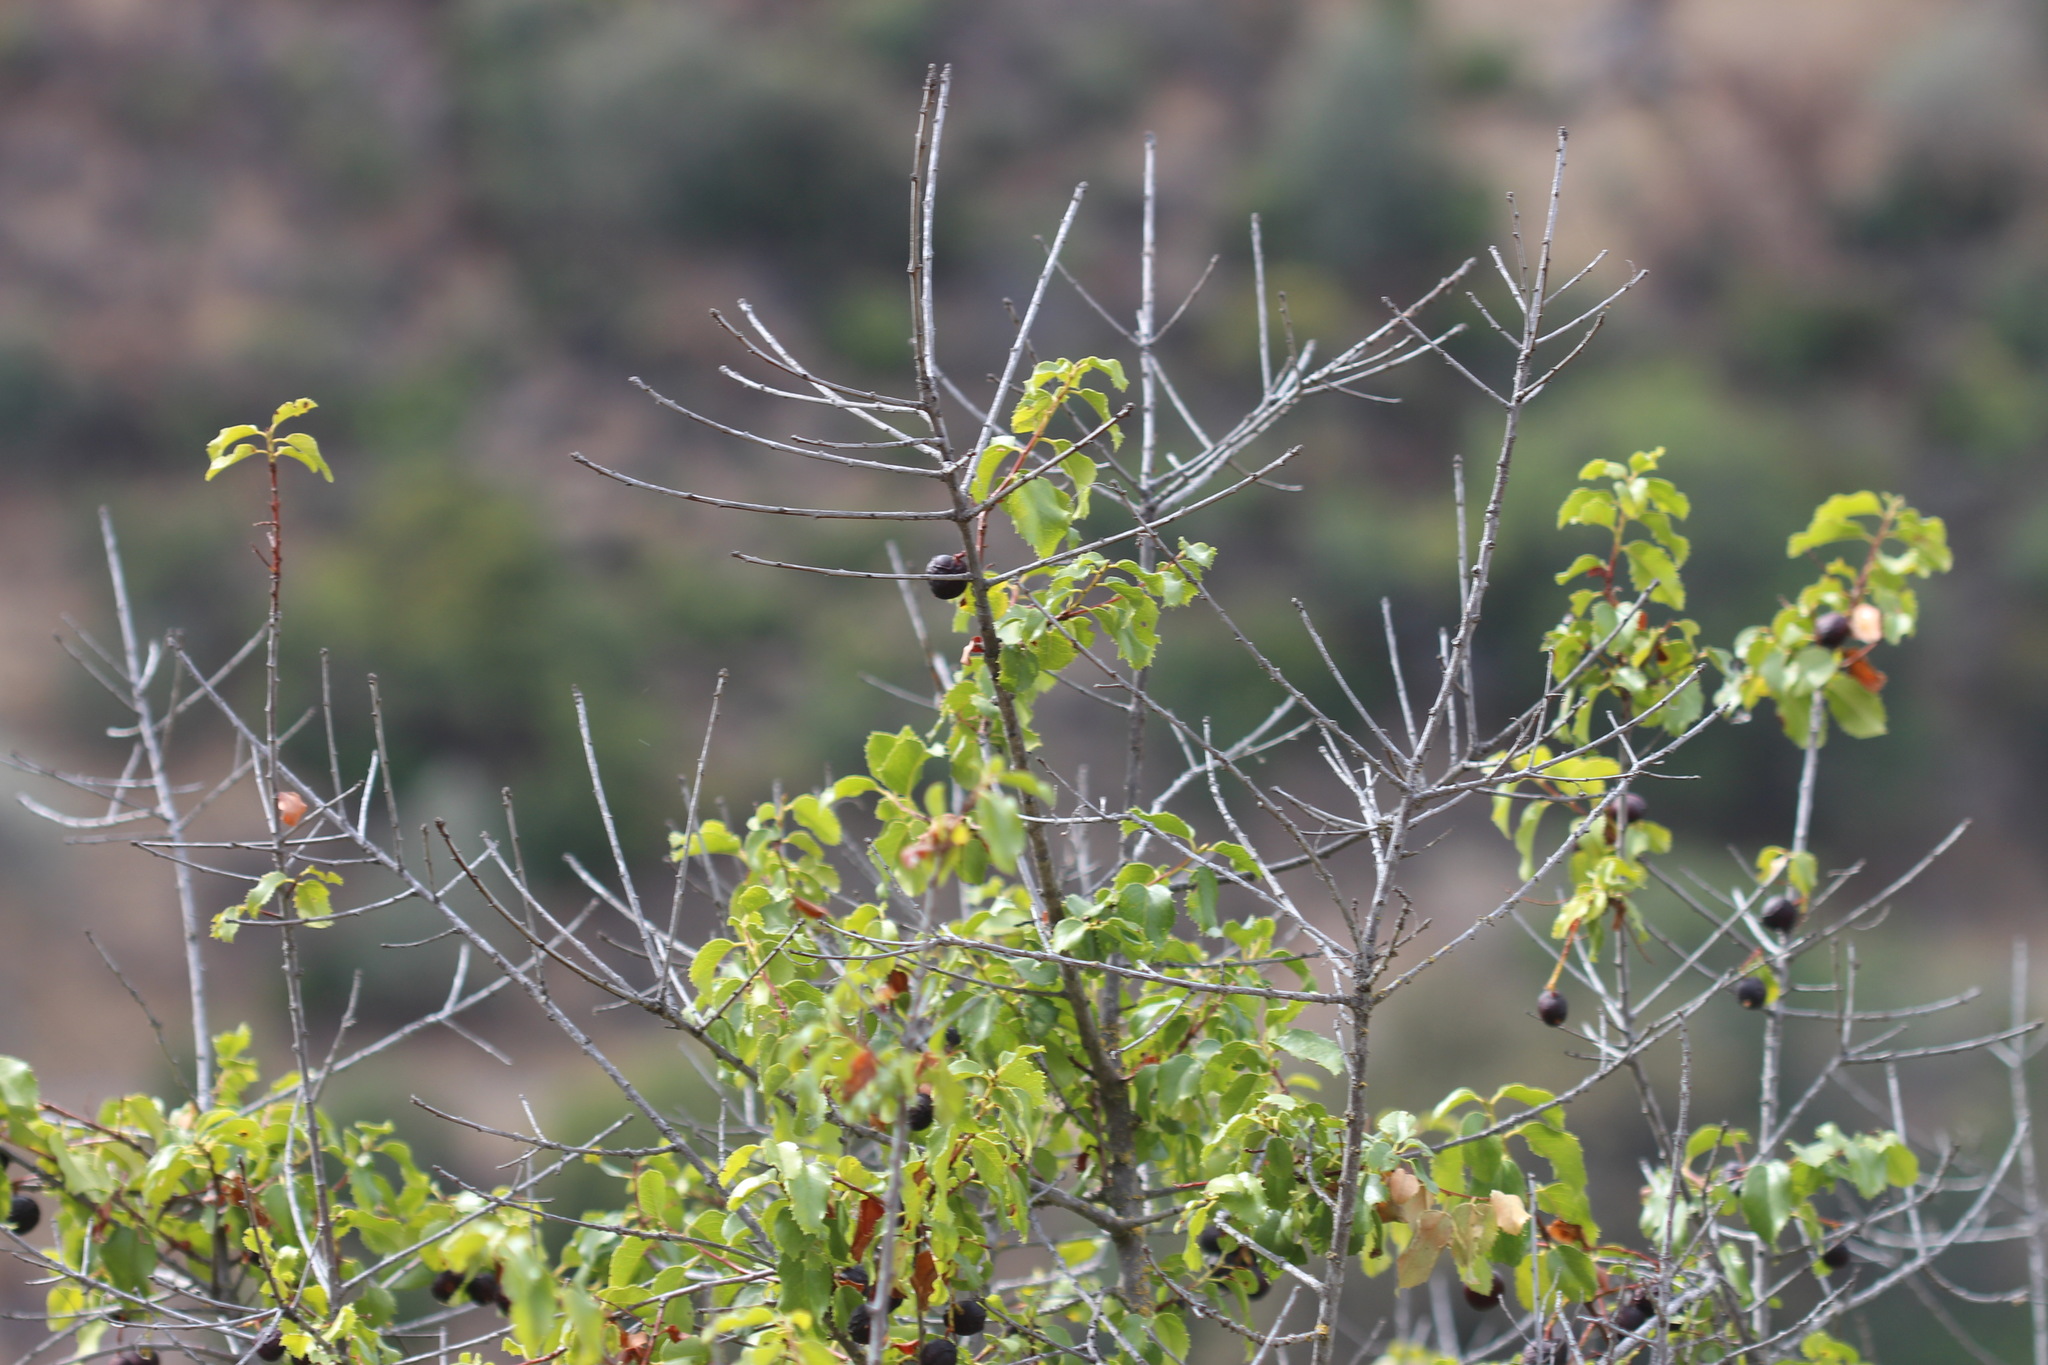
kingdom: Plantae
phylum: Tracheophyta
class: Magnoliopsida
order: Rosales
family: Rosaceae
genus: Prunus
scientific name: Prunus ilicifolia
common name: Hollyleaf cherry
